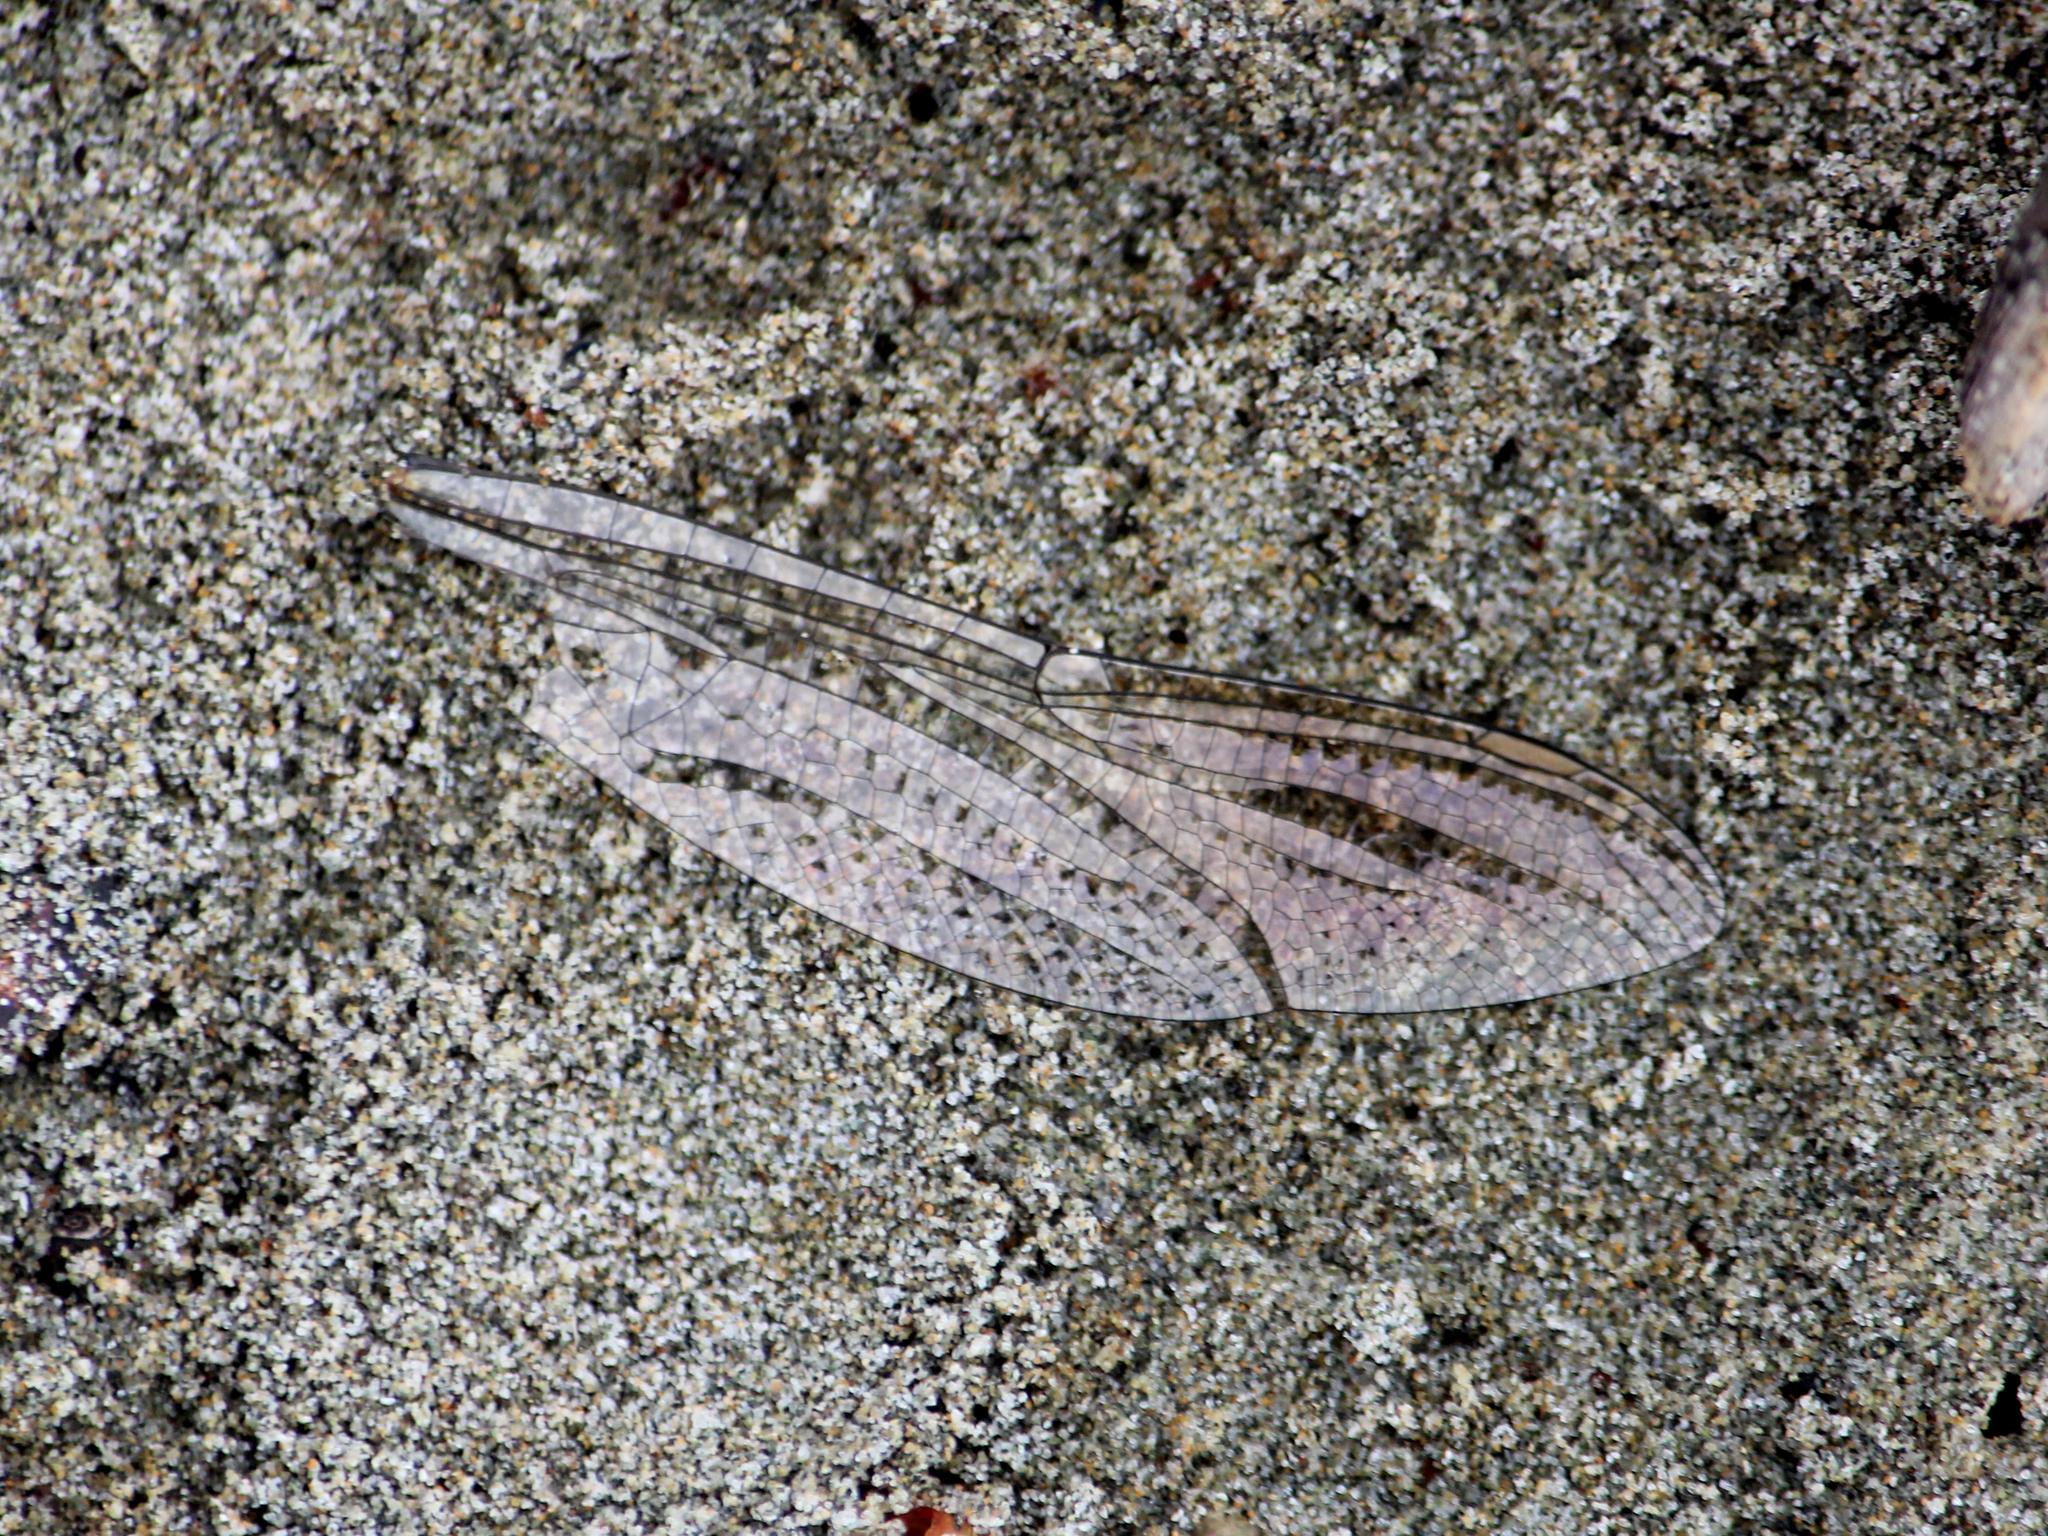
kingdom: Animalia
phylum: Arthropoda
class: Insecta
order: Odonata
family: Corduliidae
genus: Procordulia
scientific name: Procordulia grayi
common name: Yellow spotted dragonfly
